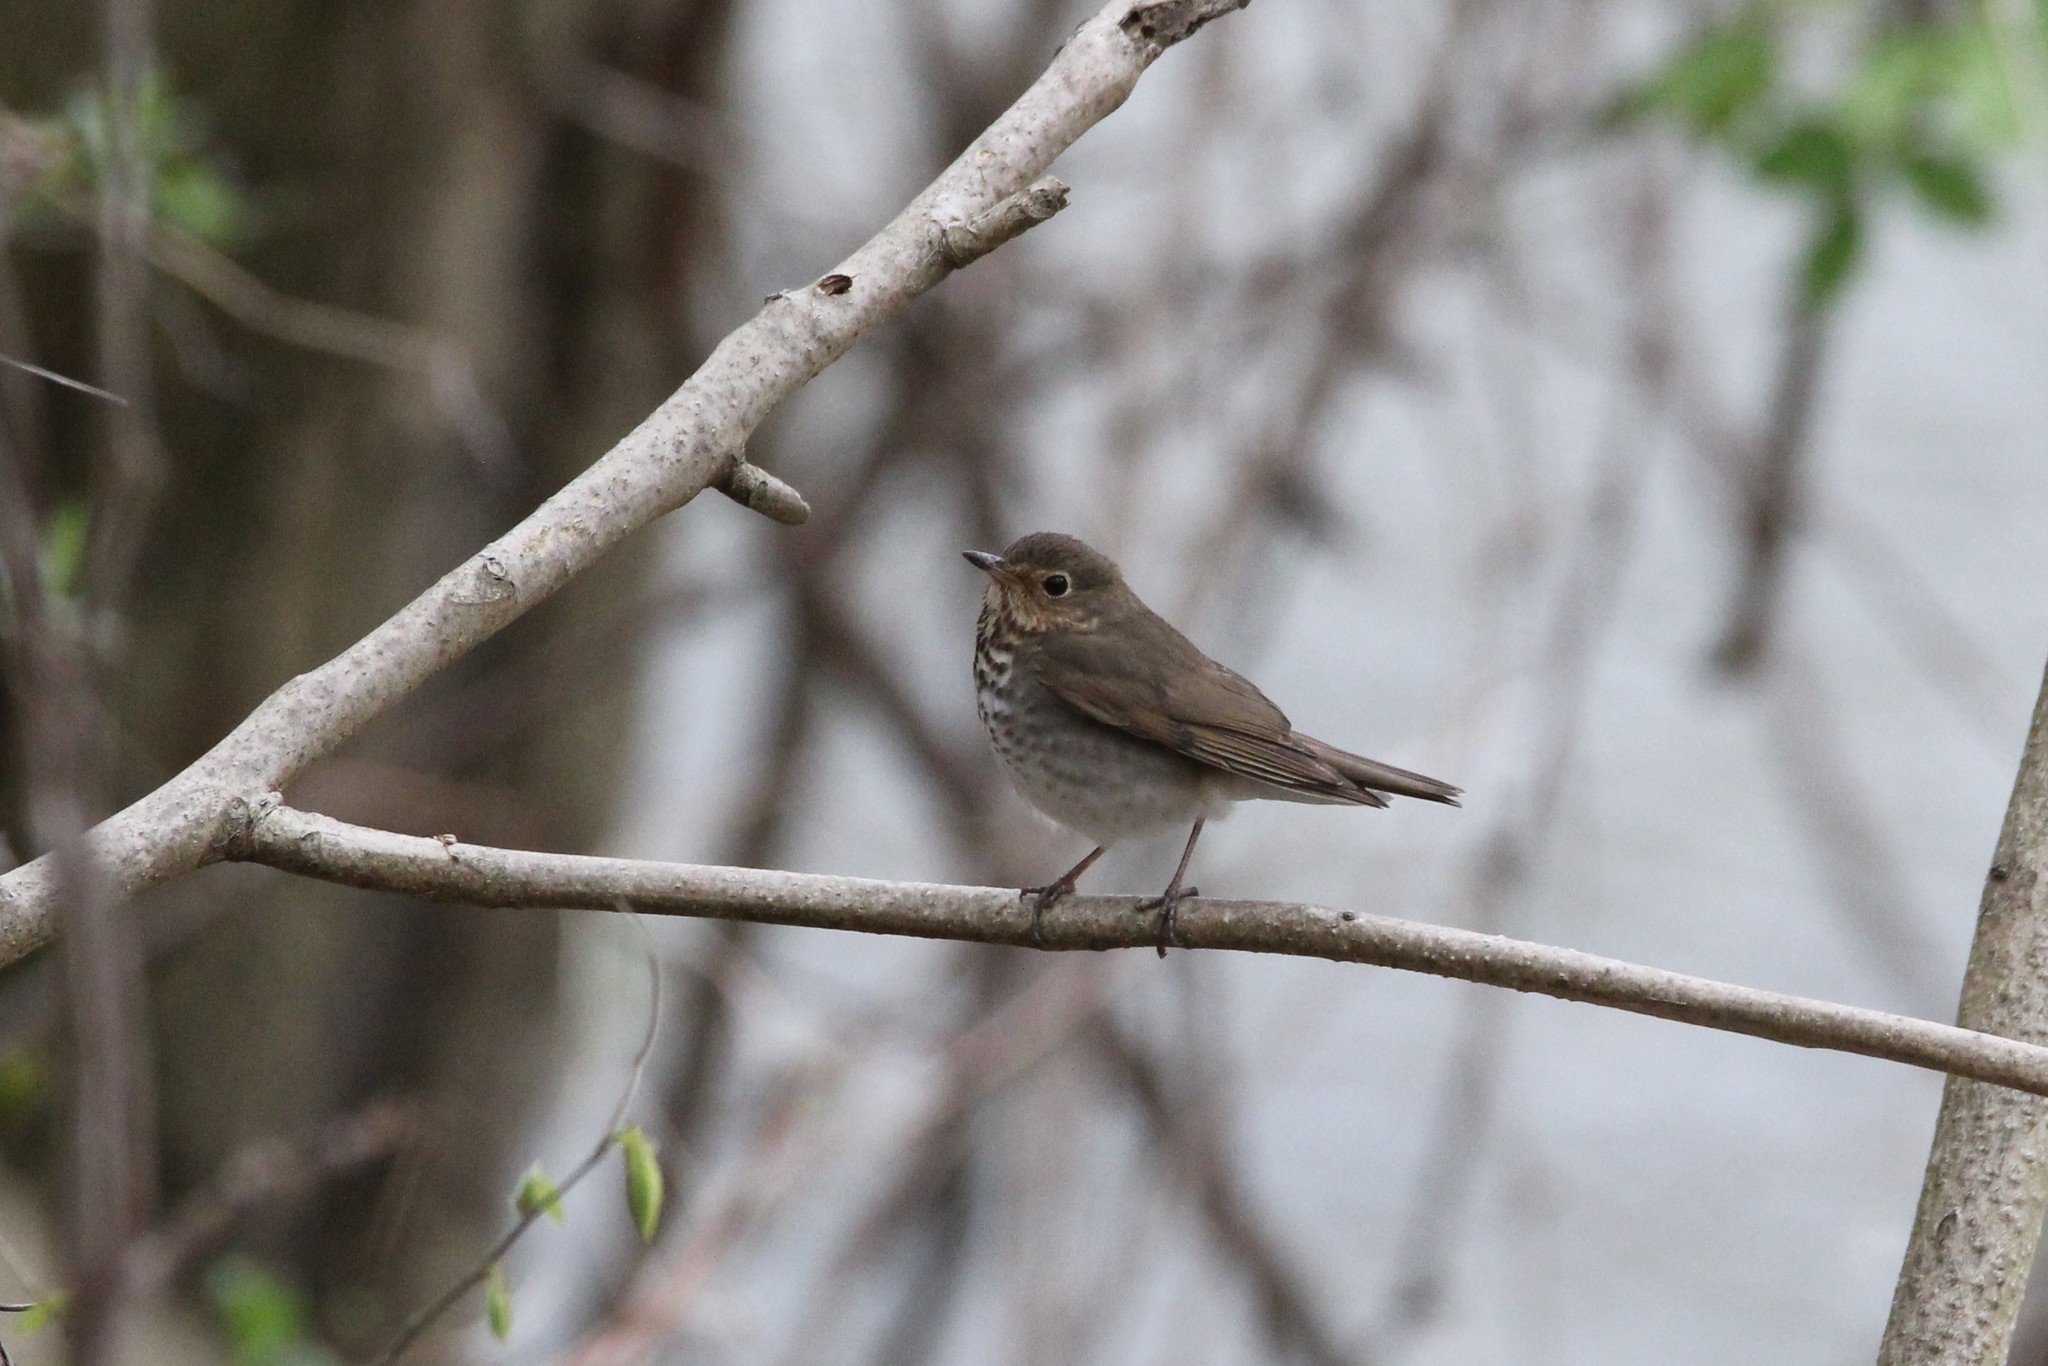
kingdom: Animalia
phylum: Chordata
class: Aves
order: Passeriformes
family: Turdidae
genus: Catharus
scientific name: Catharus ustulatus
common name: Swainson's thrush
